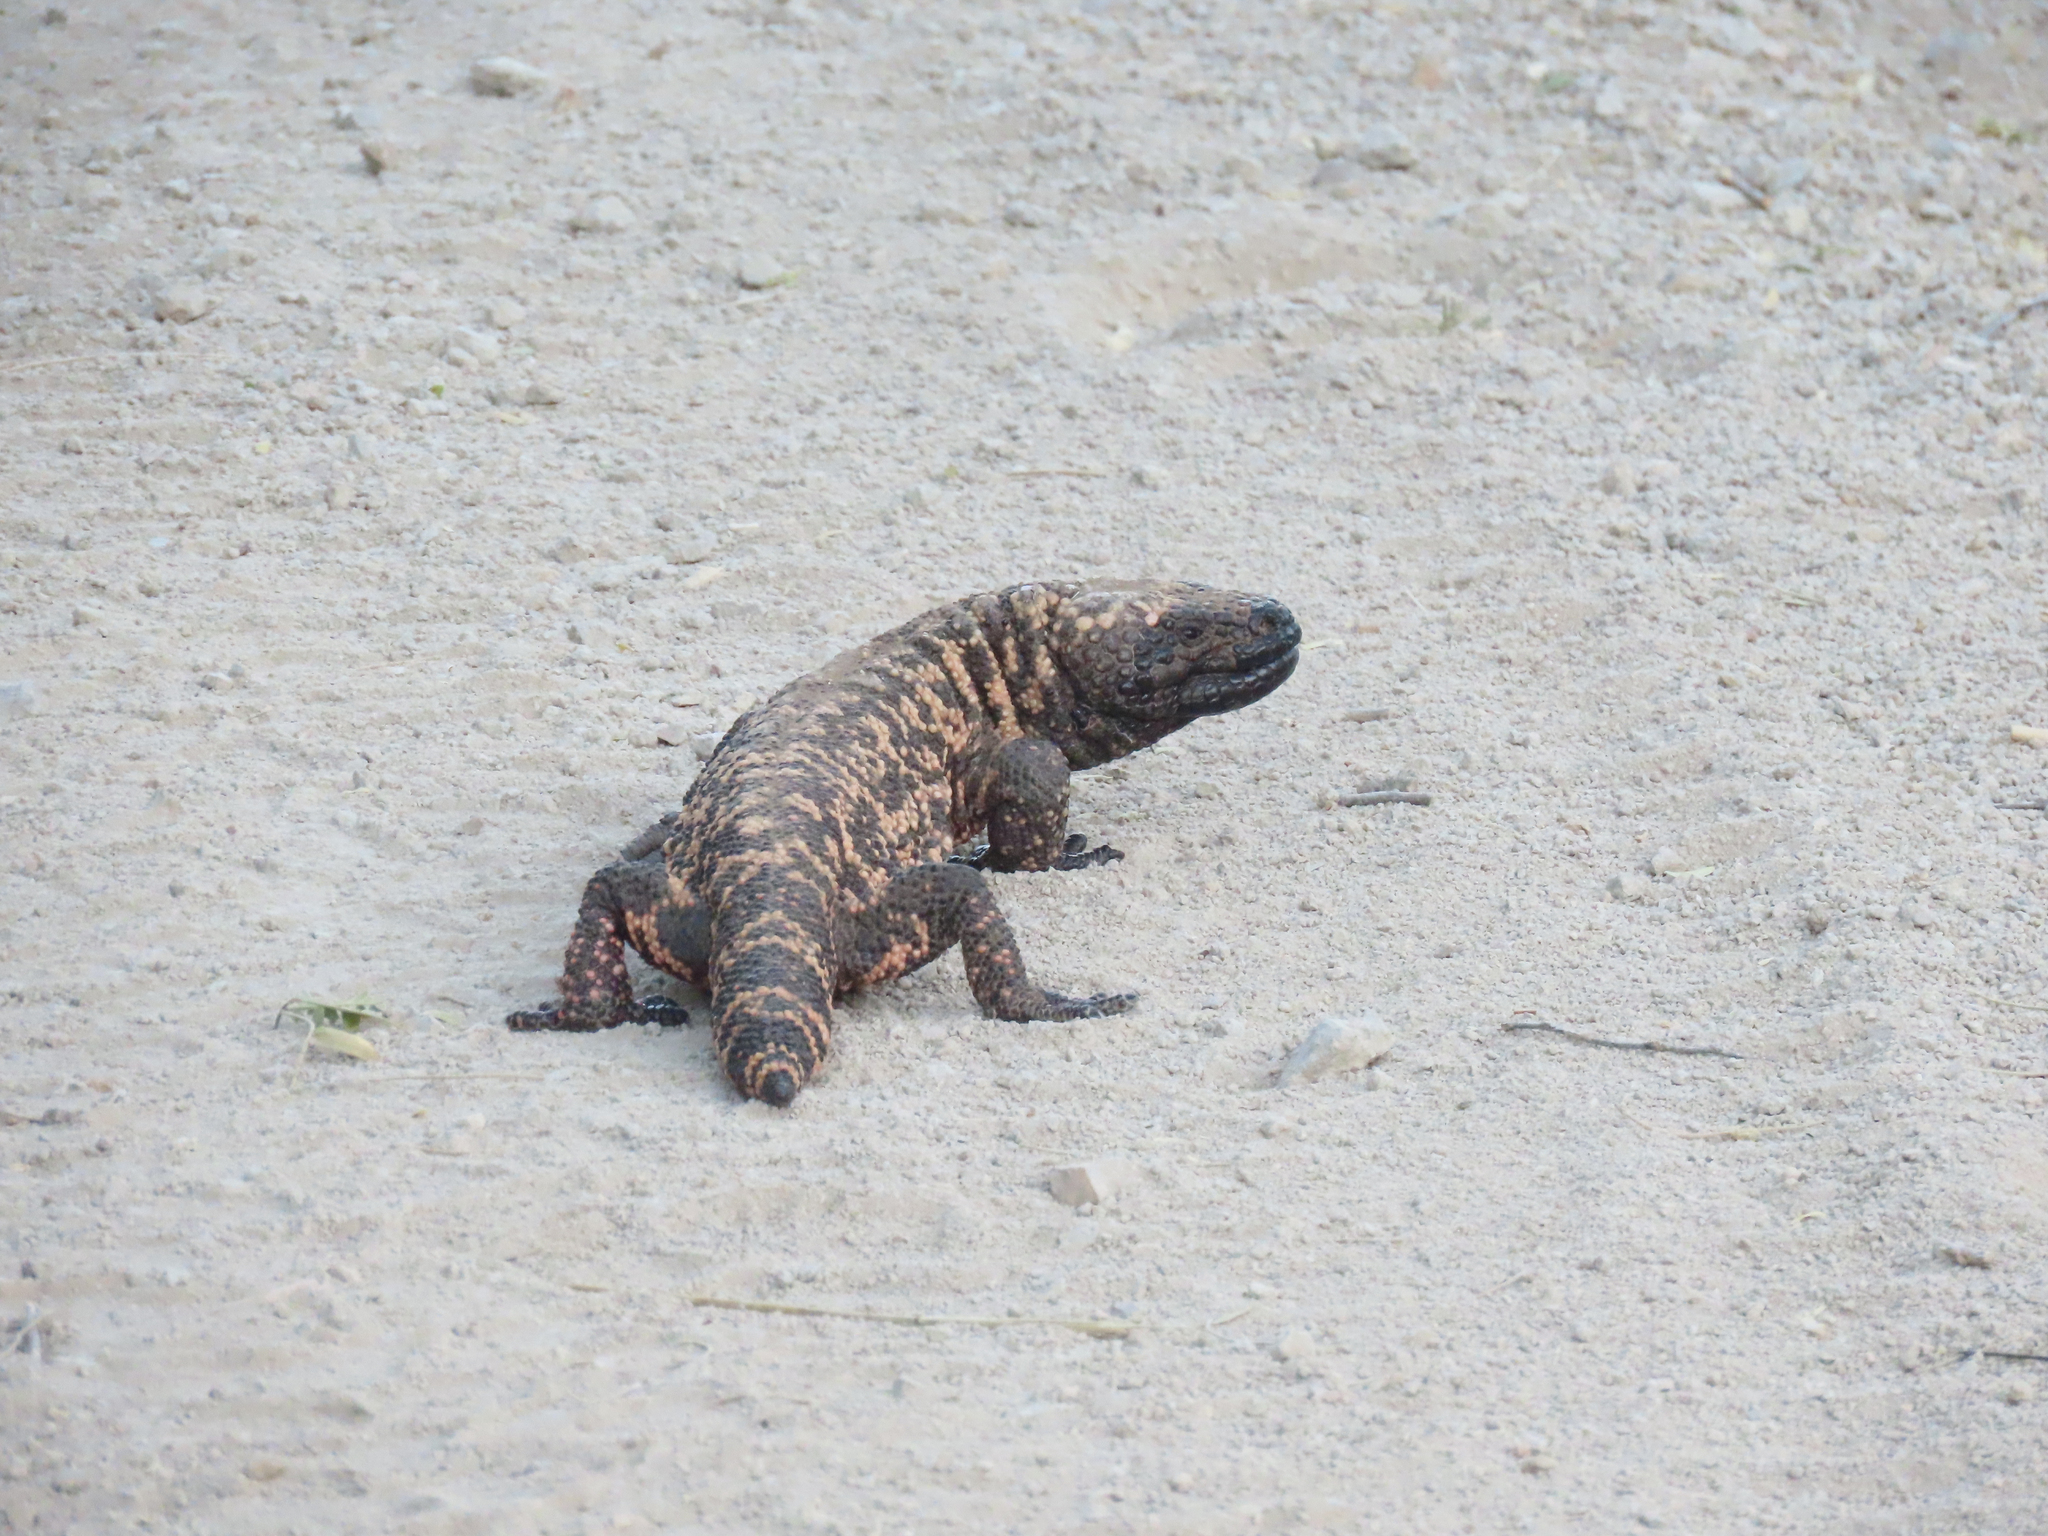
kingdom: Animalia
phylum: Chordata
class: Squamata
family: Helodermatidae
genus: Heloderma
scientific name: Heloderma suspectum
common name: Gila monster
